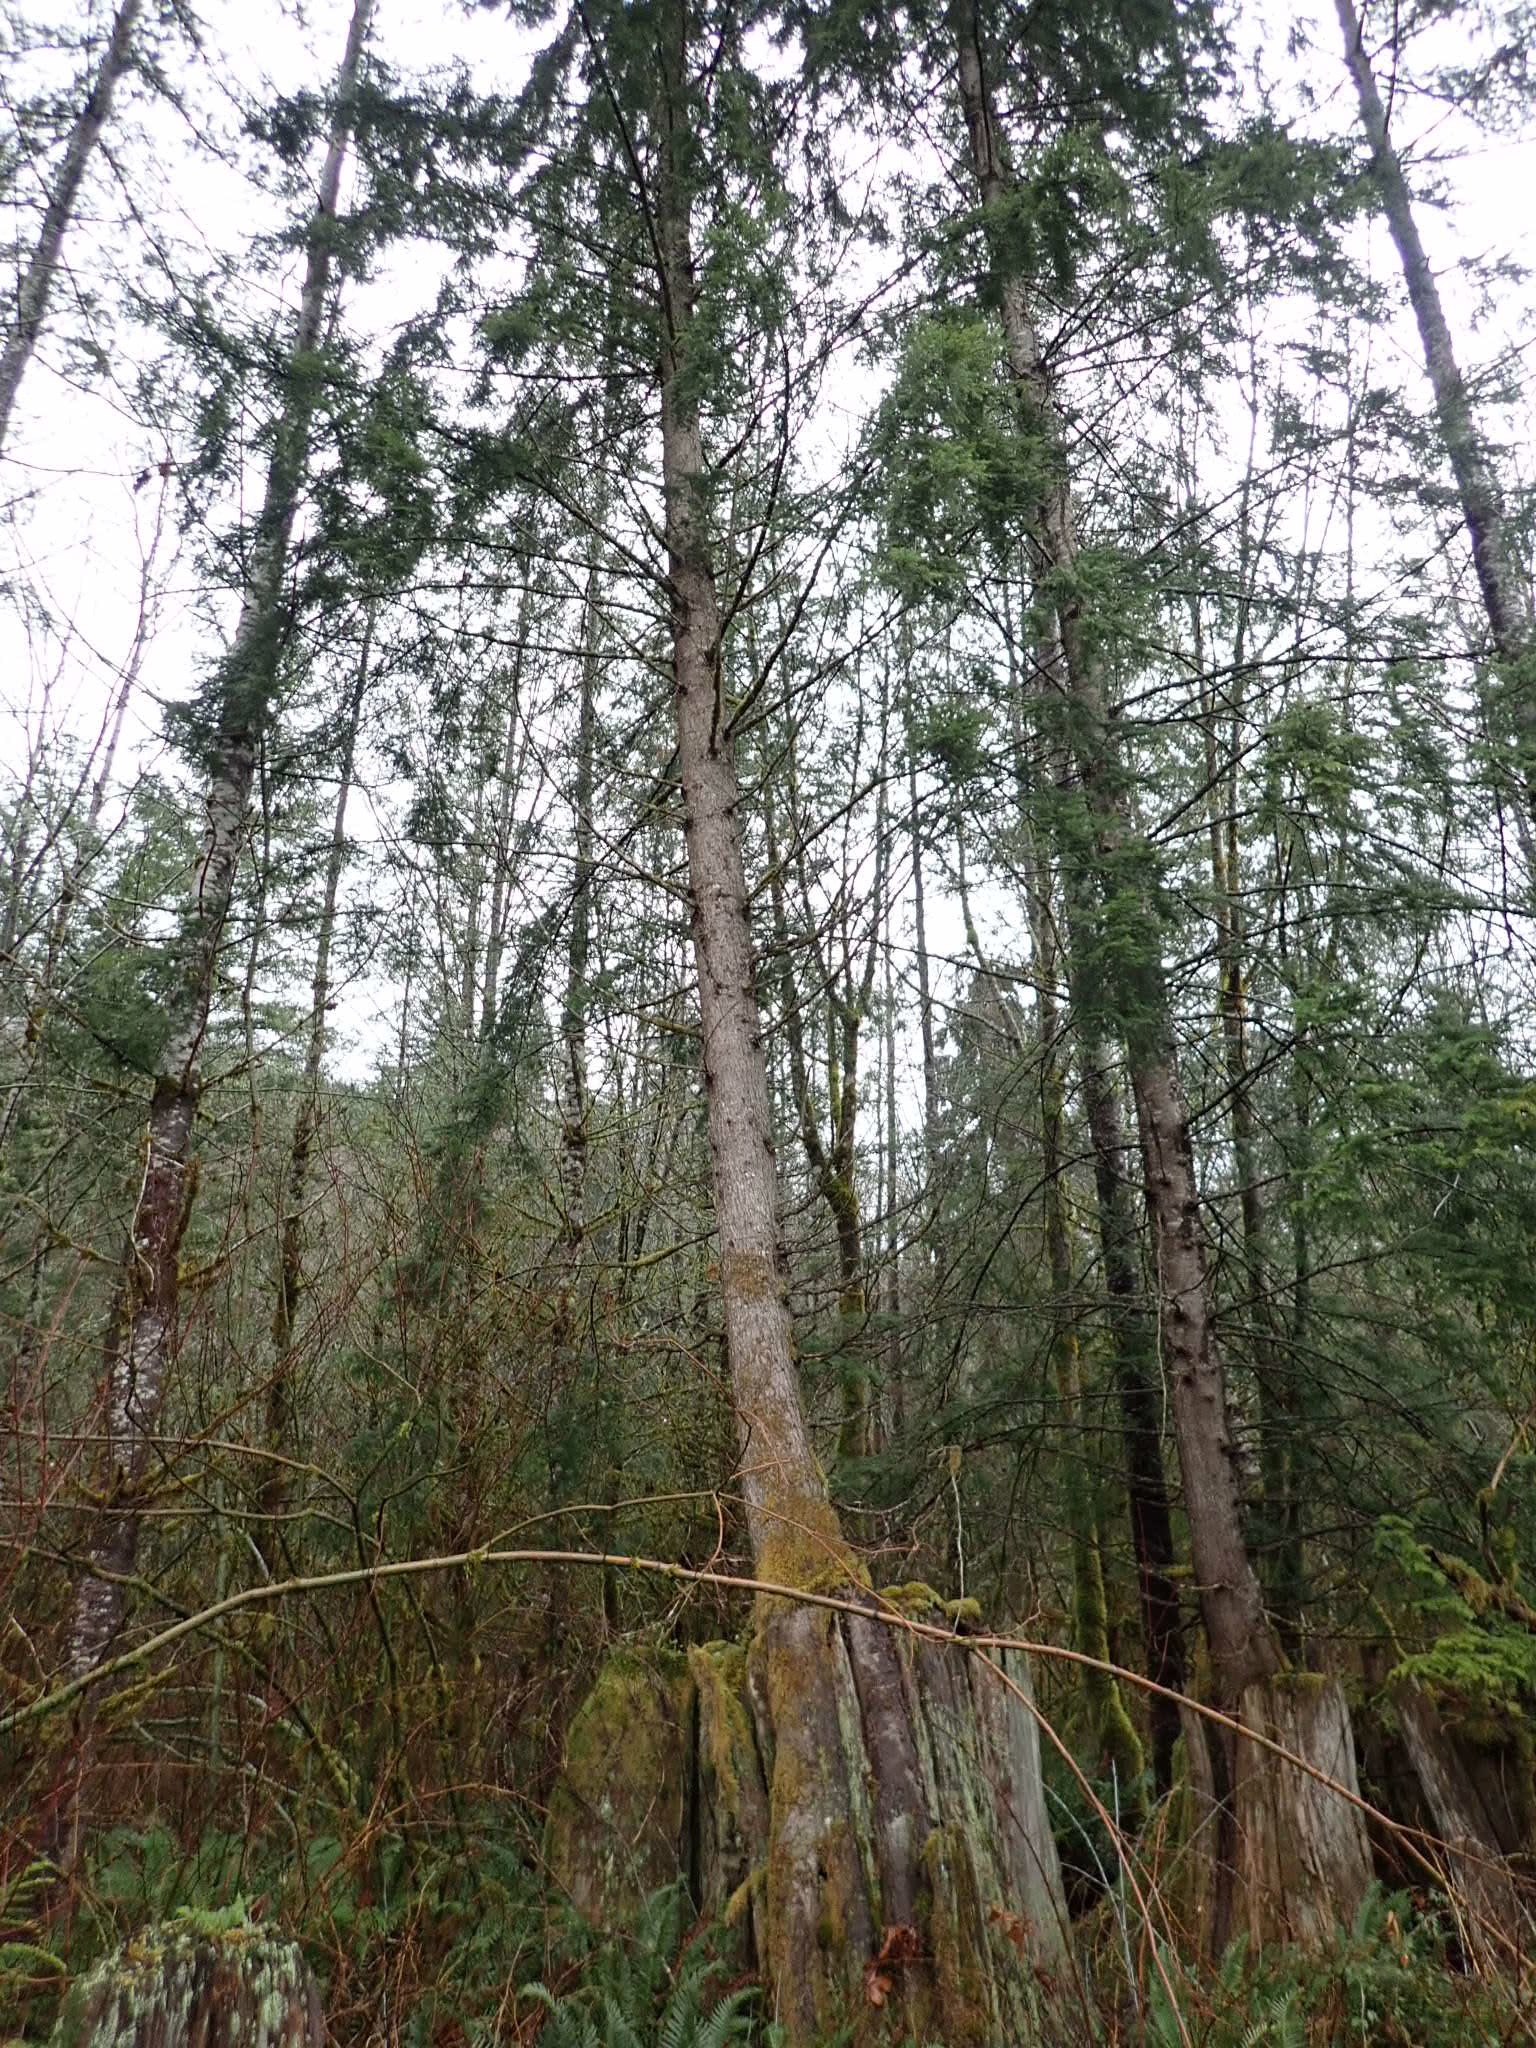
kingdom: Plantae
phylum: Tracheophyta
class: Pinopsida
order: Pinales
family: Pinaceae
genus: Tsuga
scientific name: Tsuga heterophylla
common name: Western hemlock
